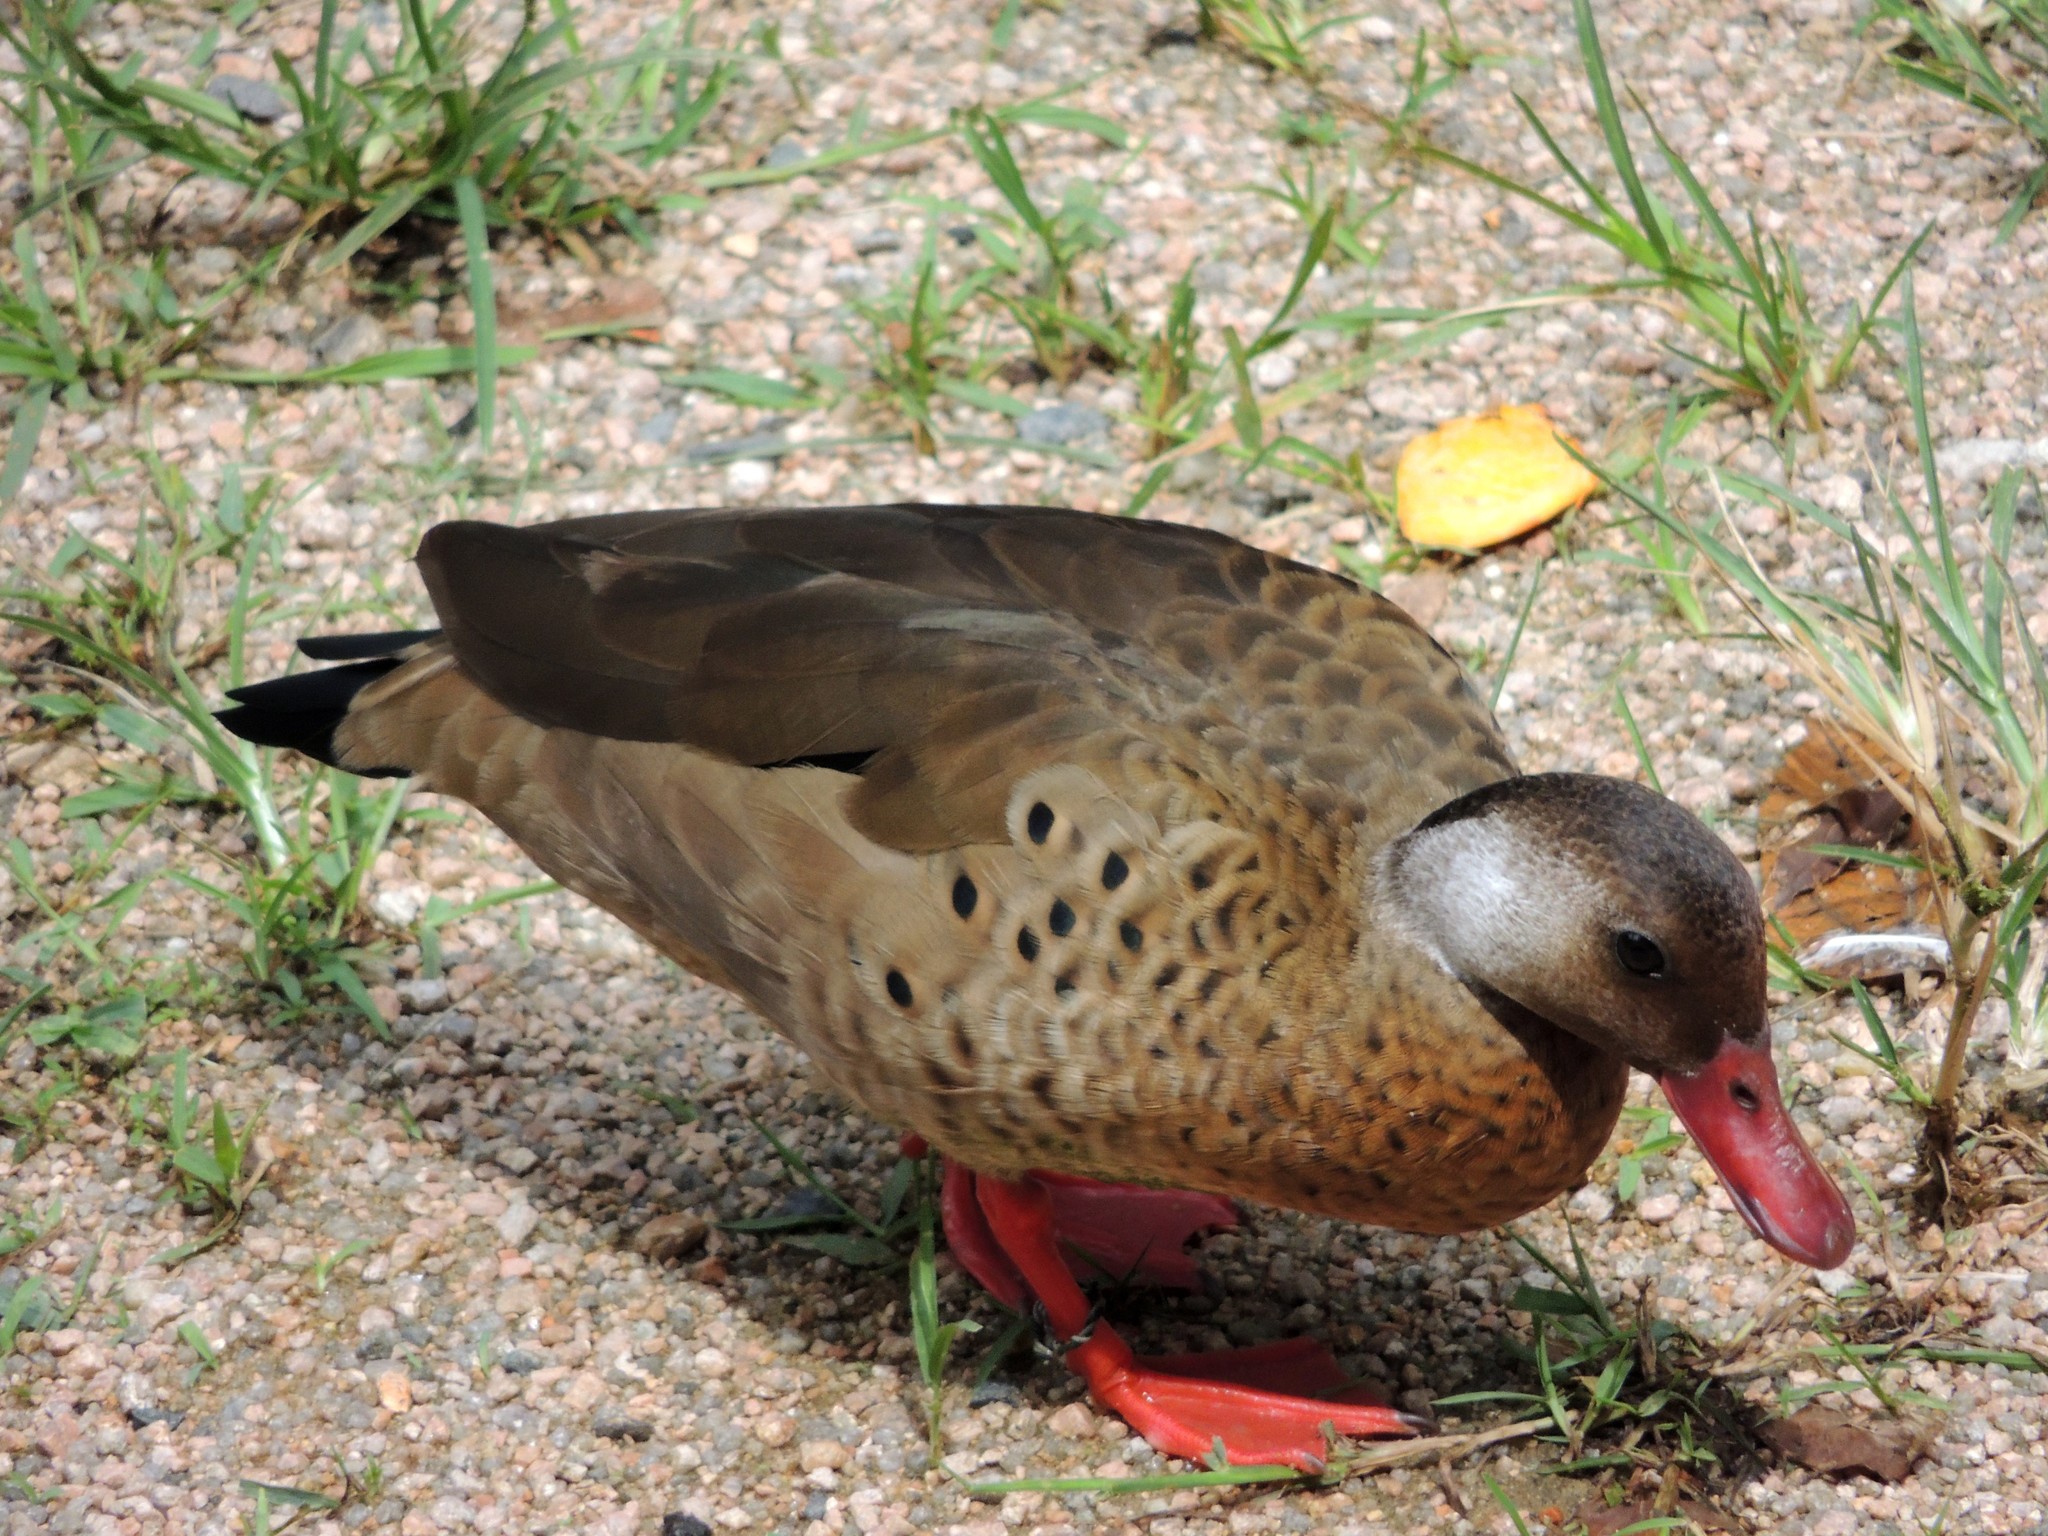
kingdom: Animalia
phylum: Chordata
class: Aves
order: Anseriformes
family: Anatidae
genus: Amazonetta
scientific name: Amazonetta brasiliensis
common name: Brazilian teal
